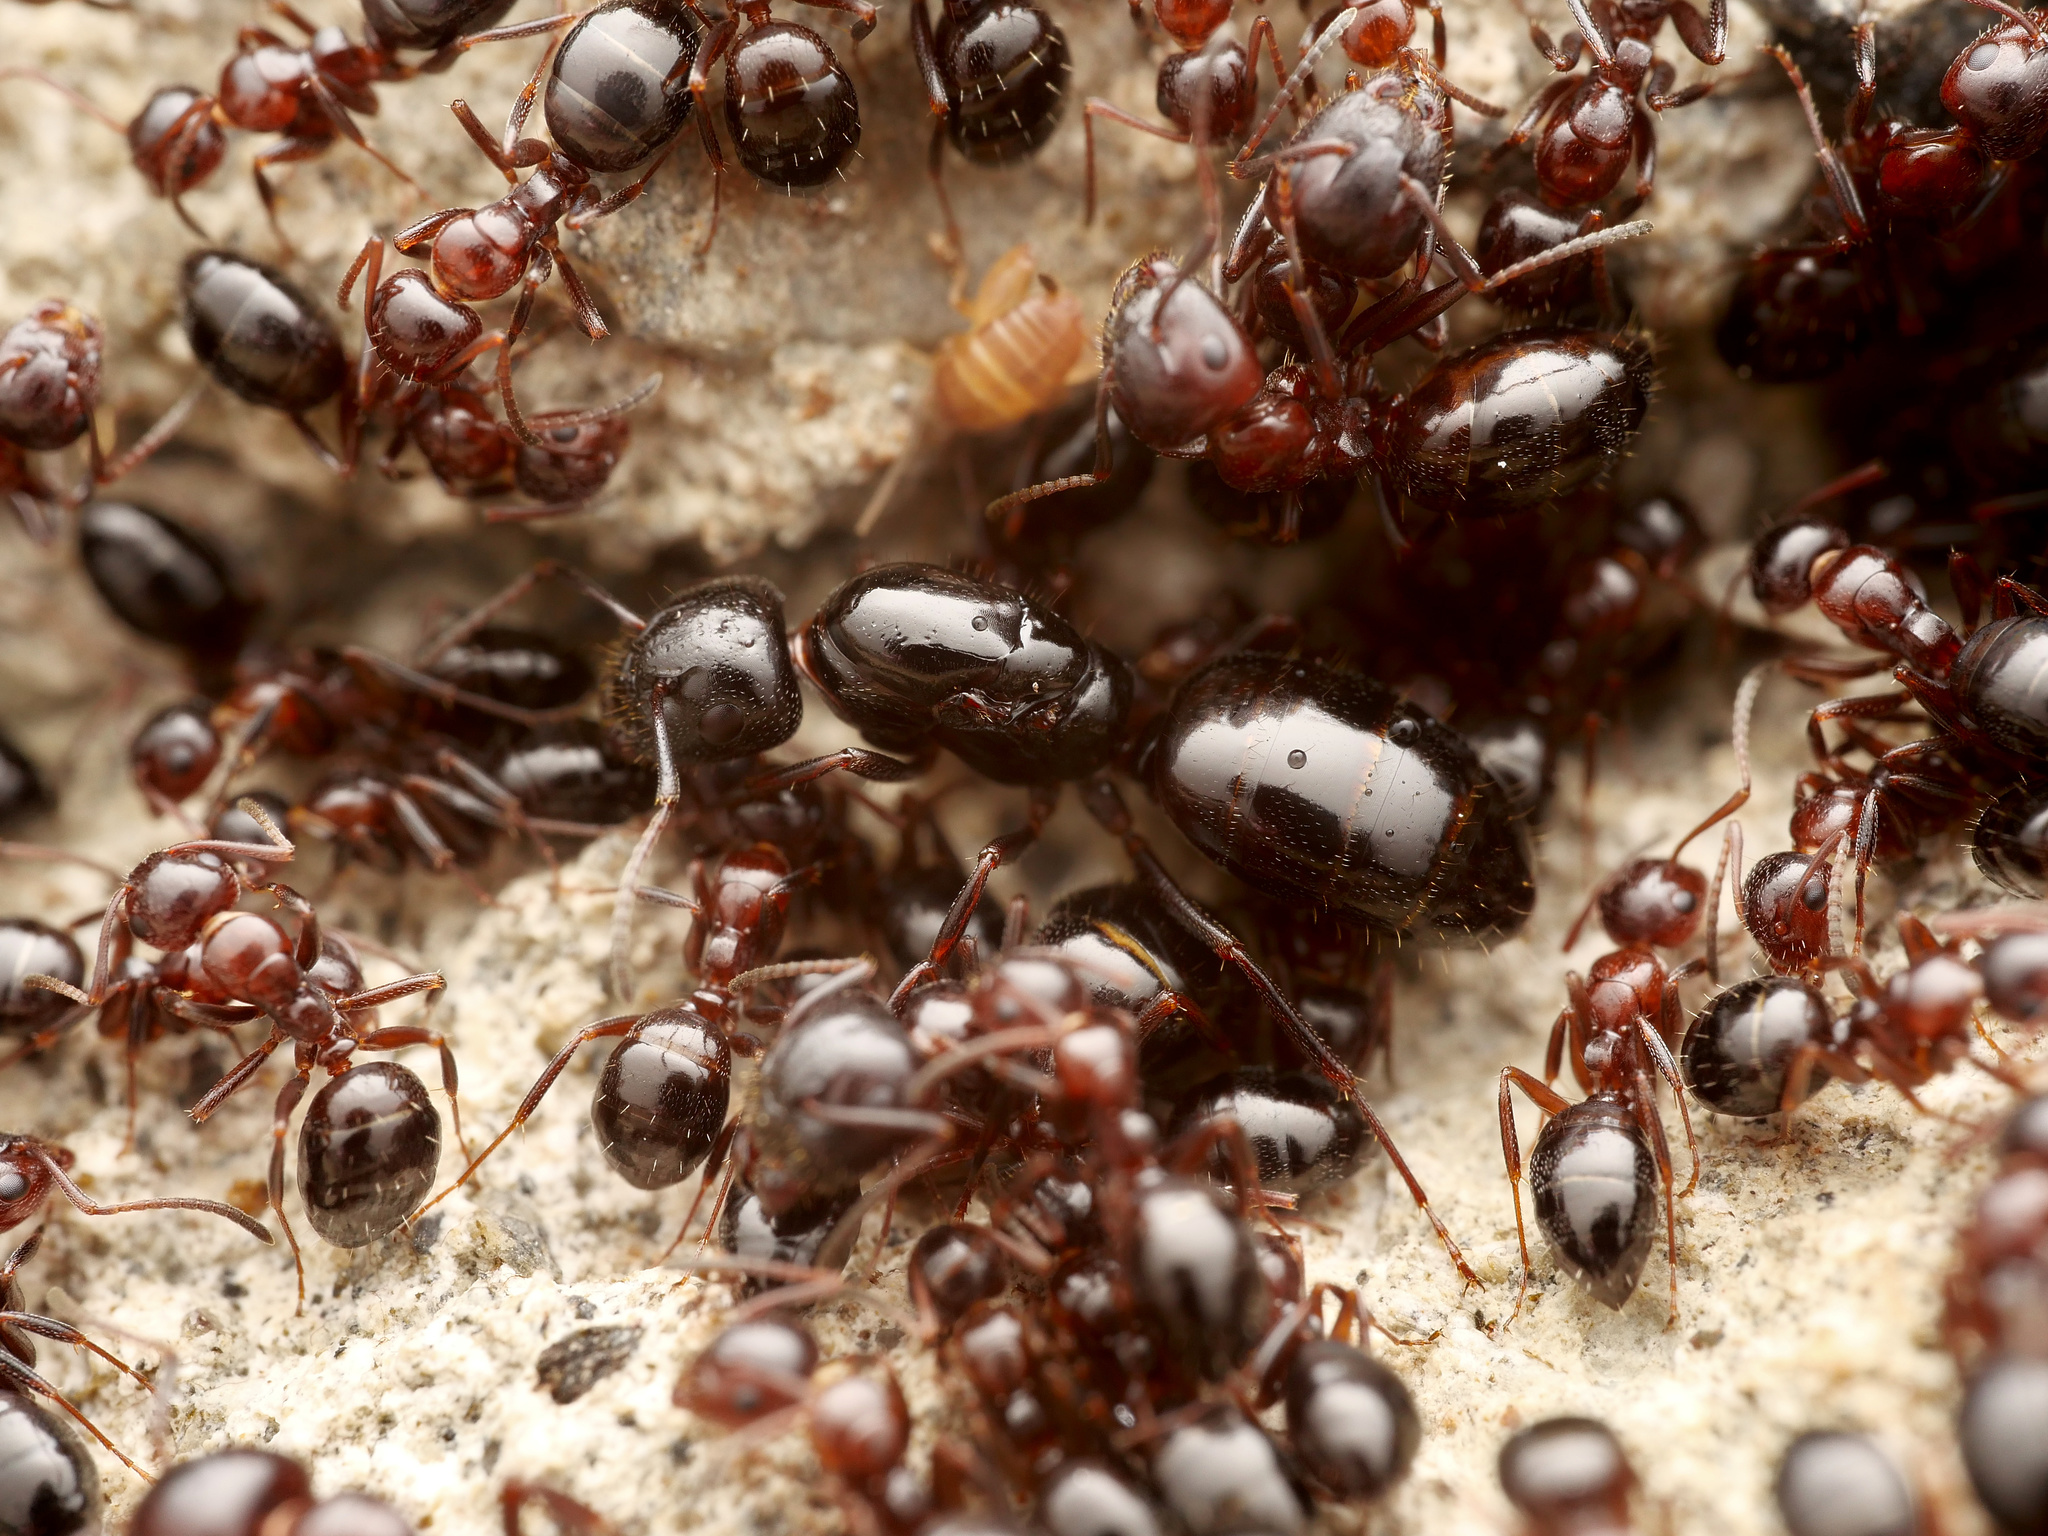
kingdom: Animalia
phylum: Arthropoda
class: Insecta
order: Hymenoptera
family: Formicidae
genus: Camponotus
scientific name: Camponotus lateralis
